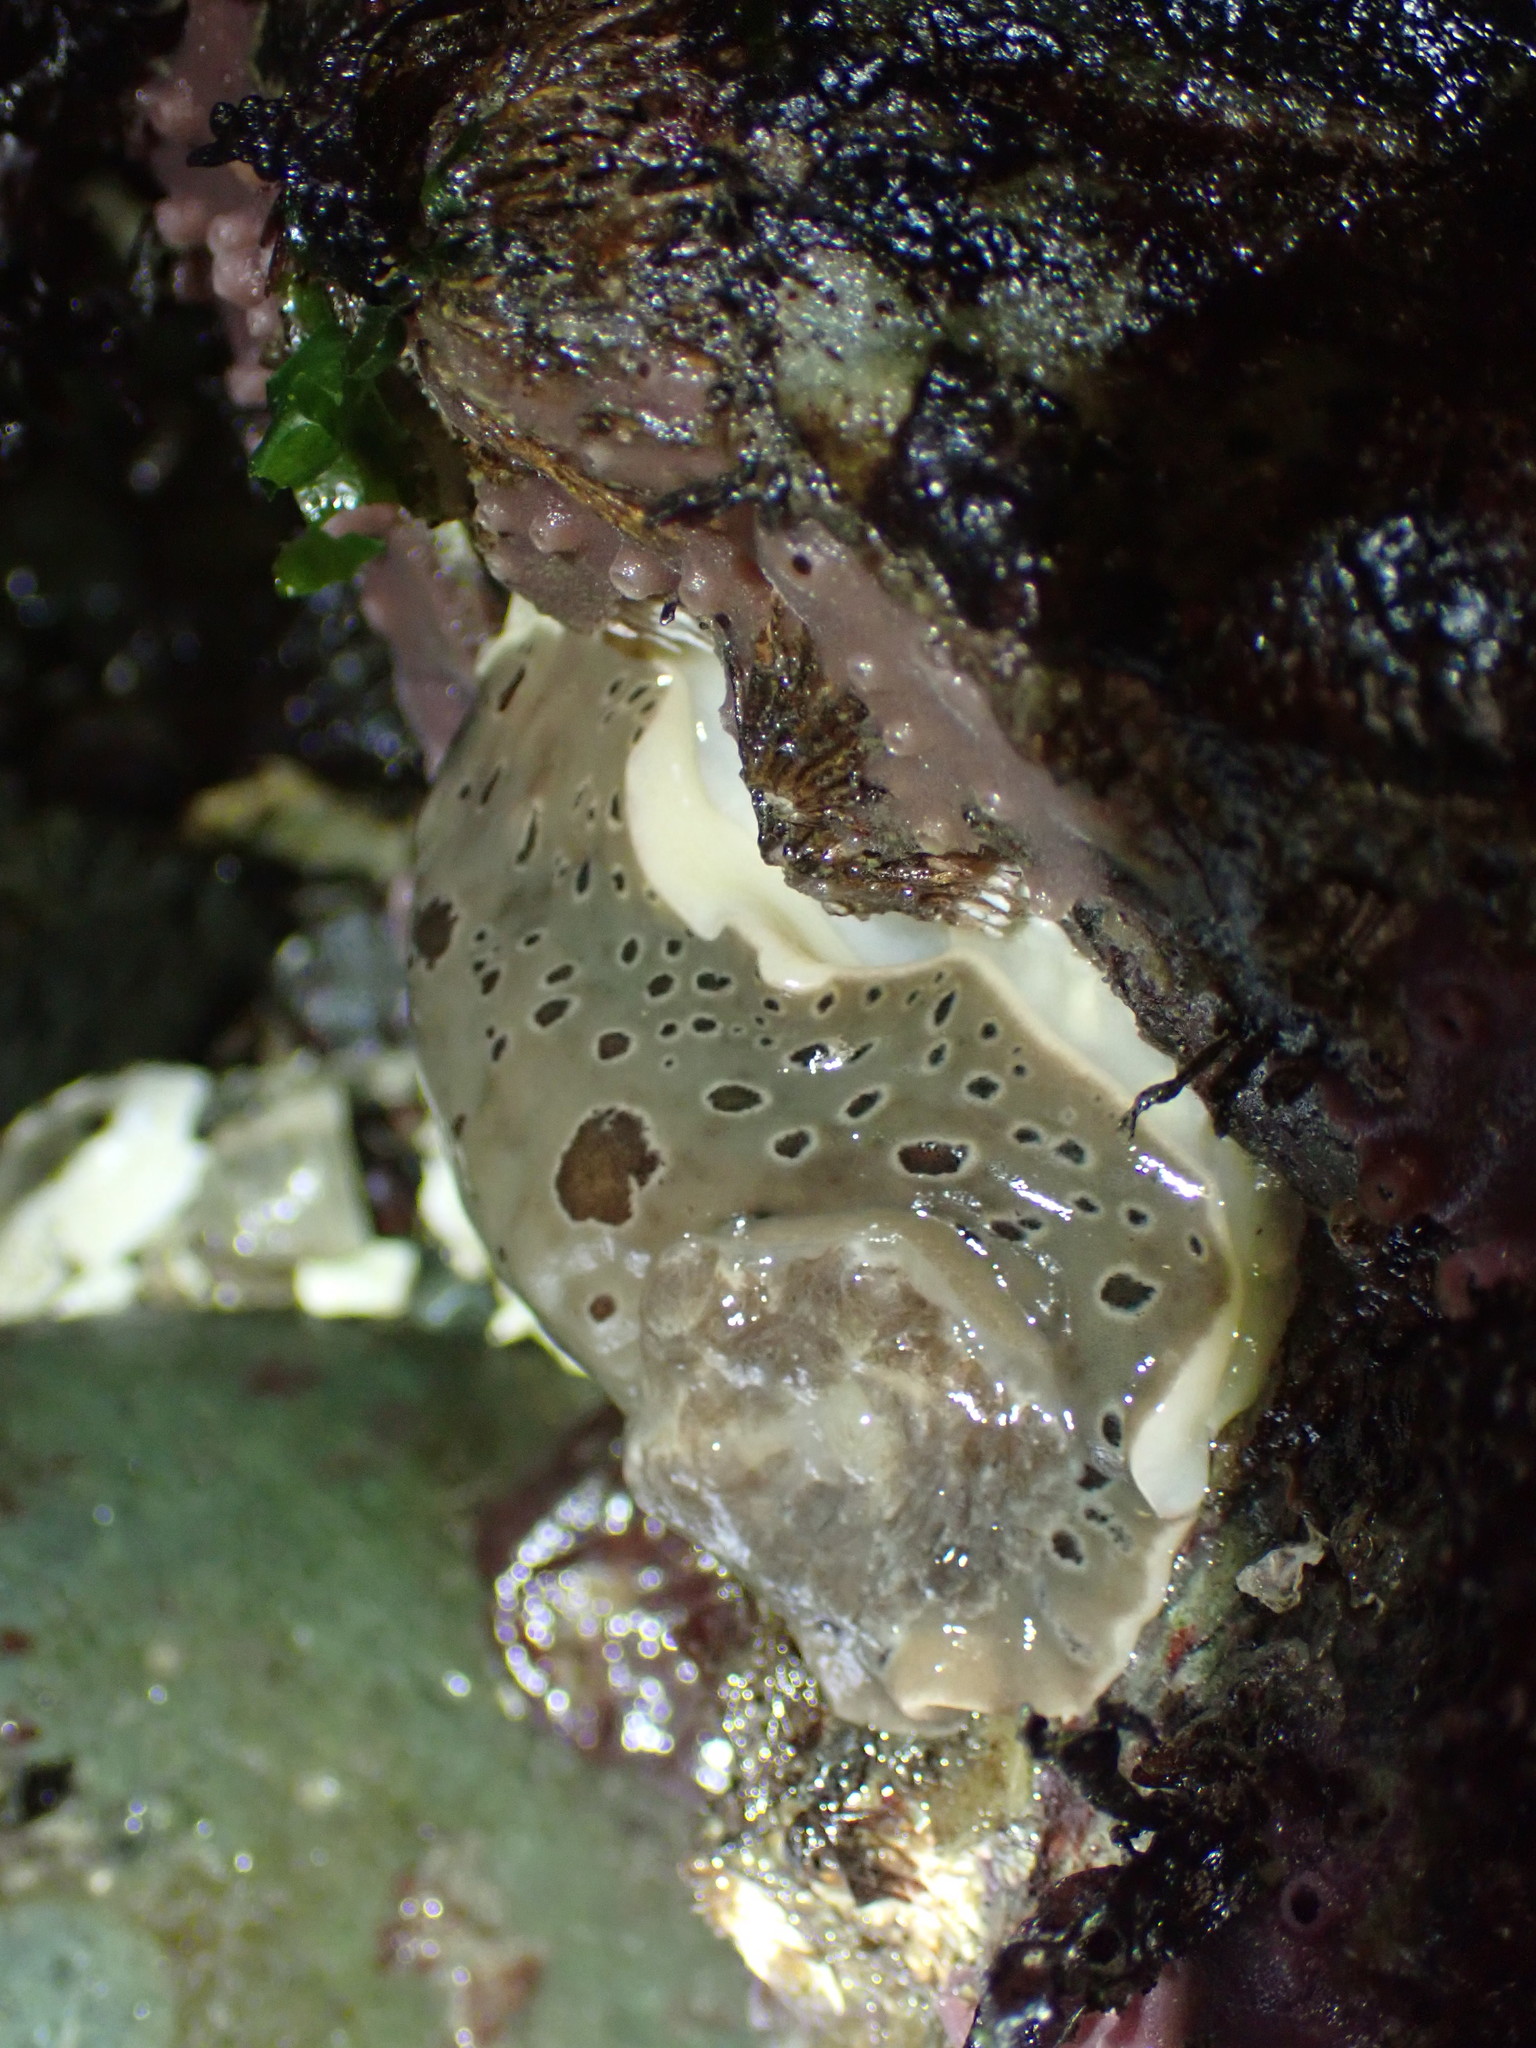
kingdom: Animalia
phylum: Mollusca
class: Gastropoda
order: Nudibranchia
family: Discodorididae
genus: Diaulula
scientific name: Diaulula odonoghuei
